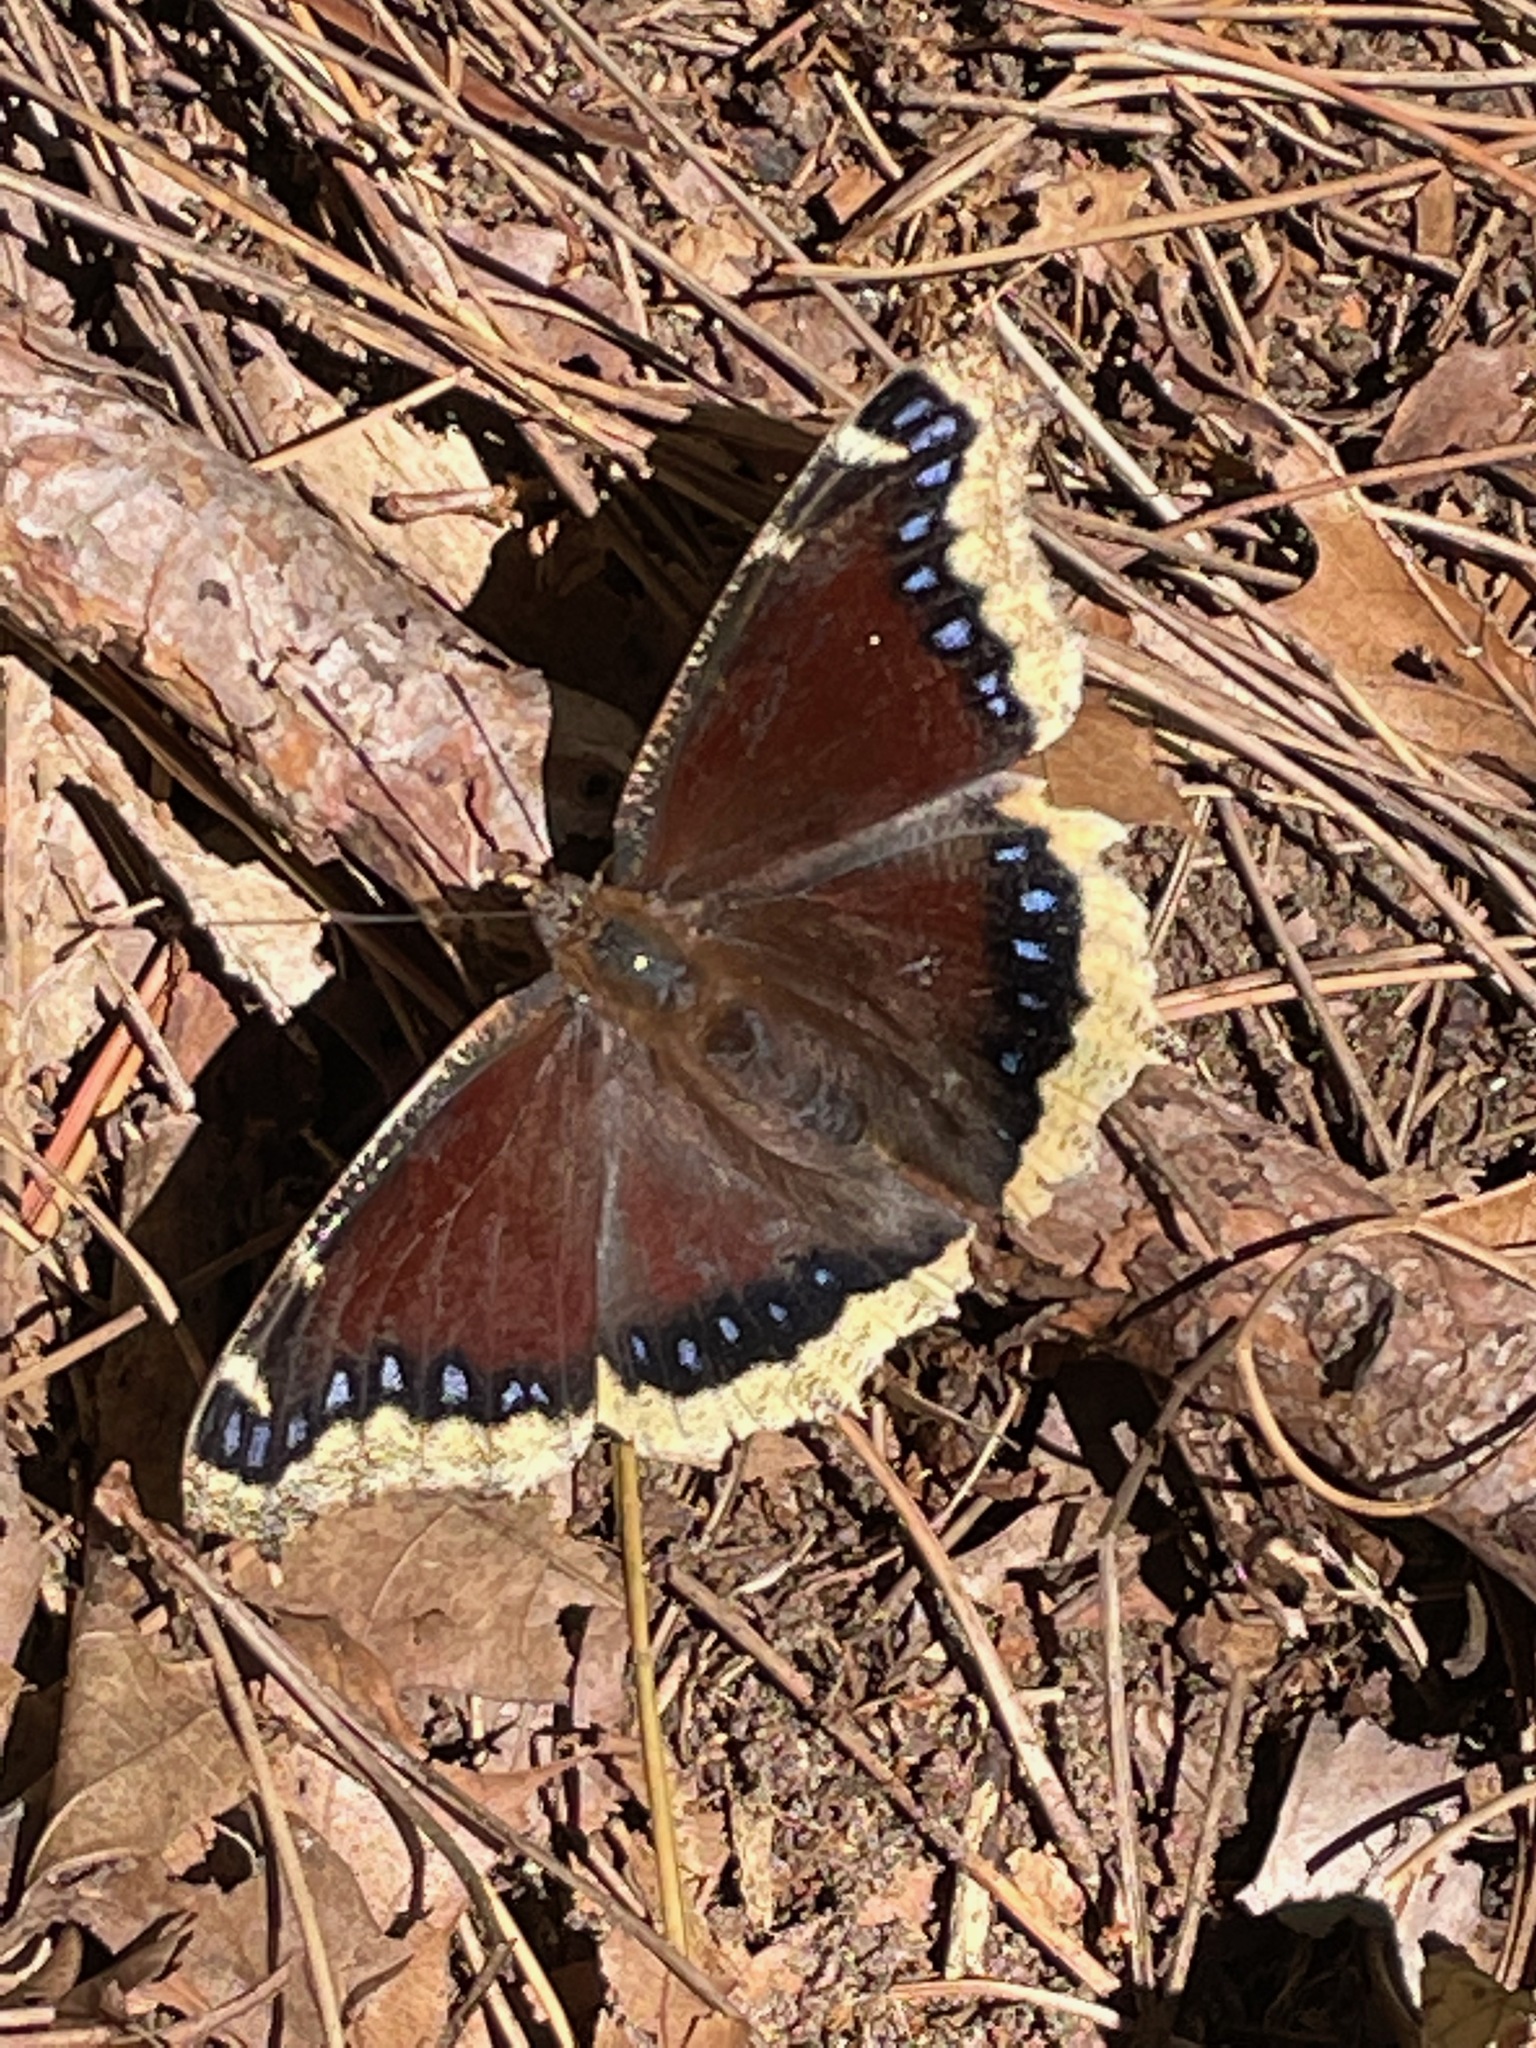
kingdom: Animalia
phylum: Arthropoda
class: Insecta
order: Lepidoptera
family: Nymphalidae
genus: Nymphalis
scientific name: Nymphalis antiopa
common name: Camberwell beauty
